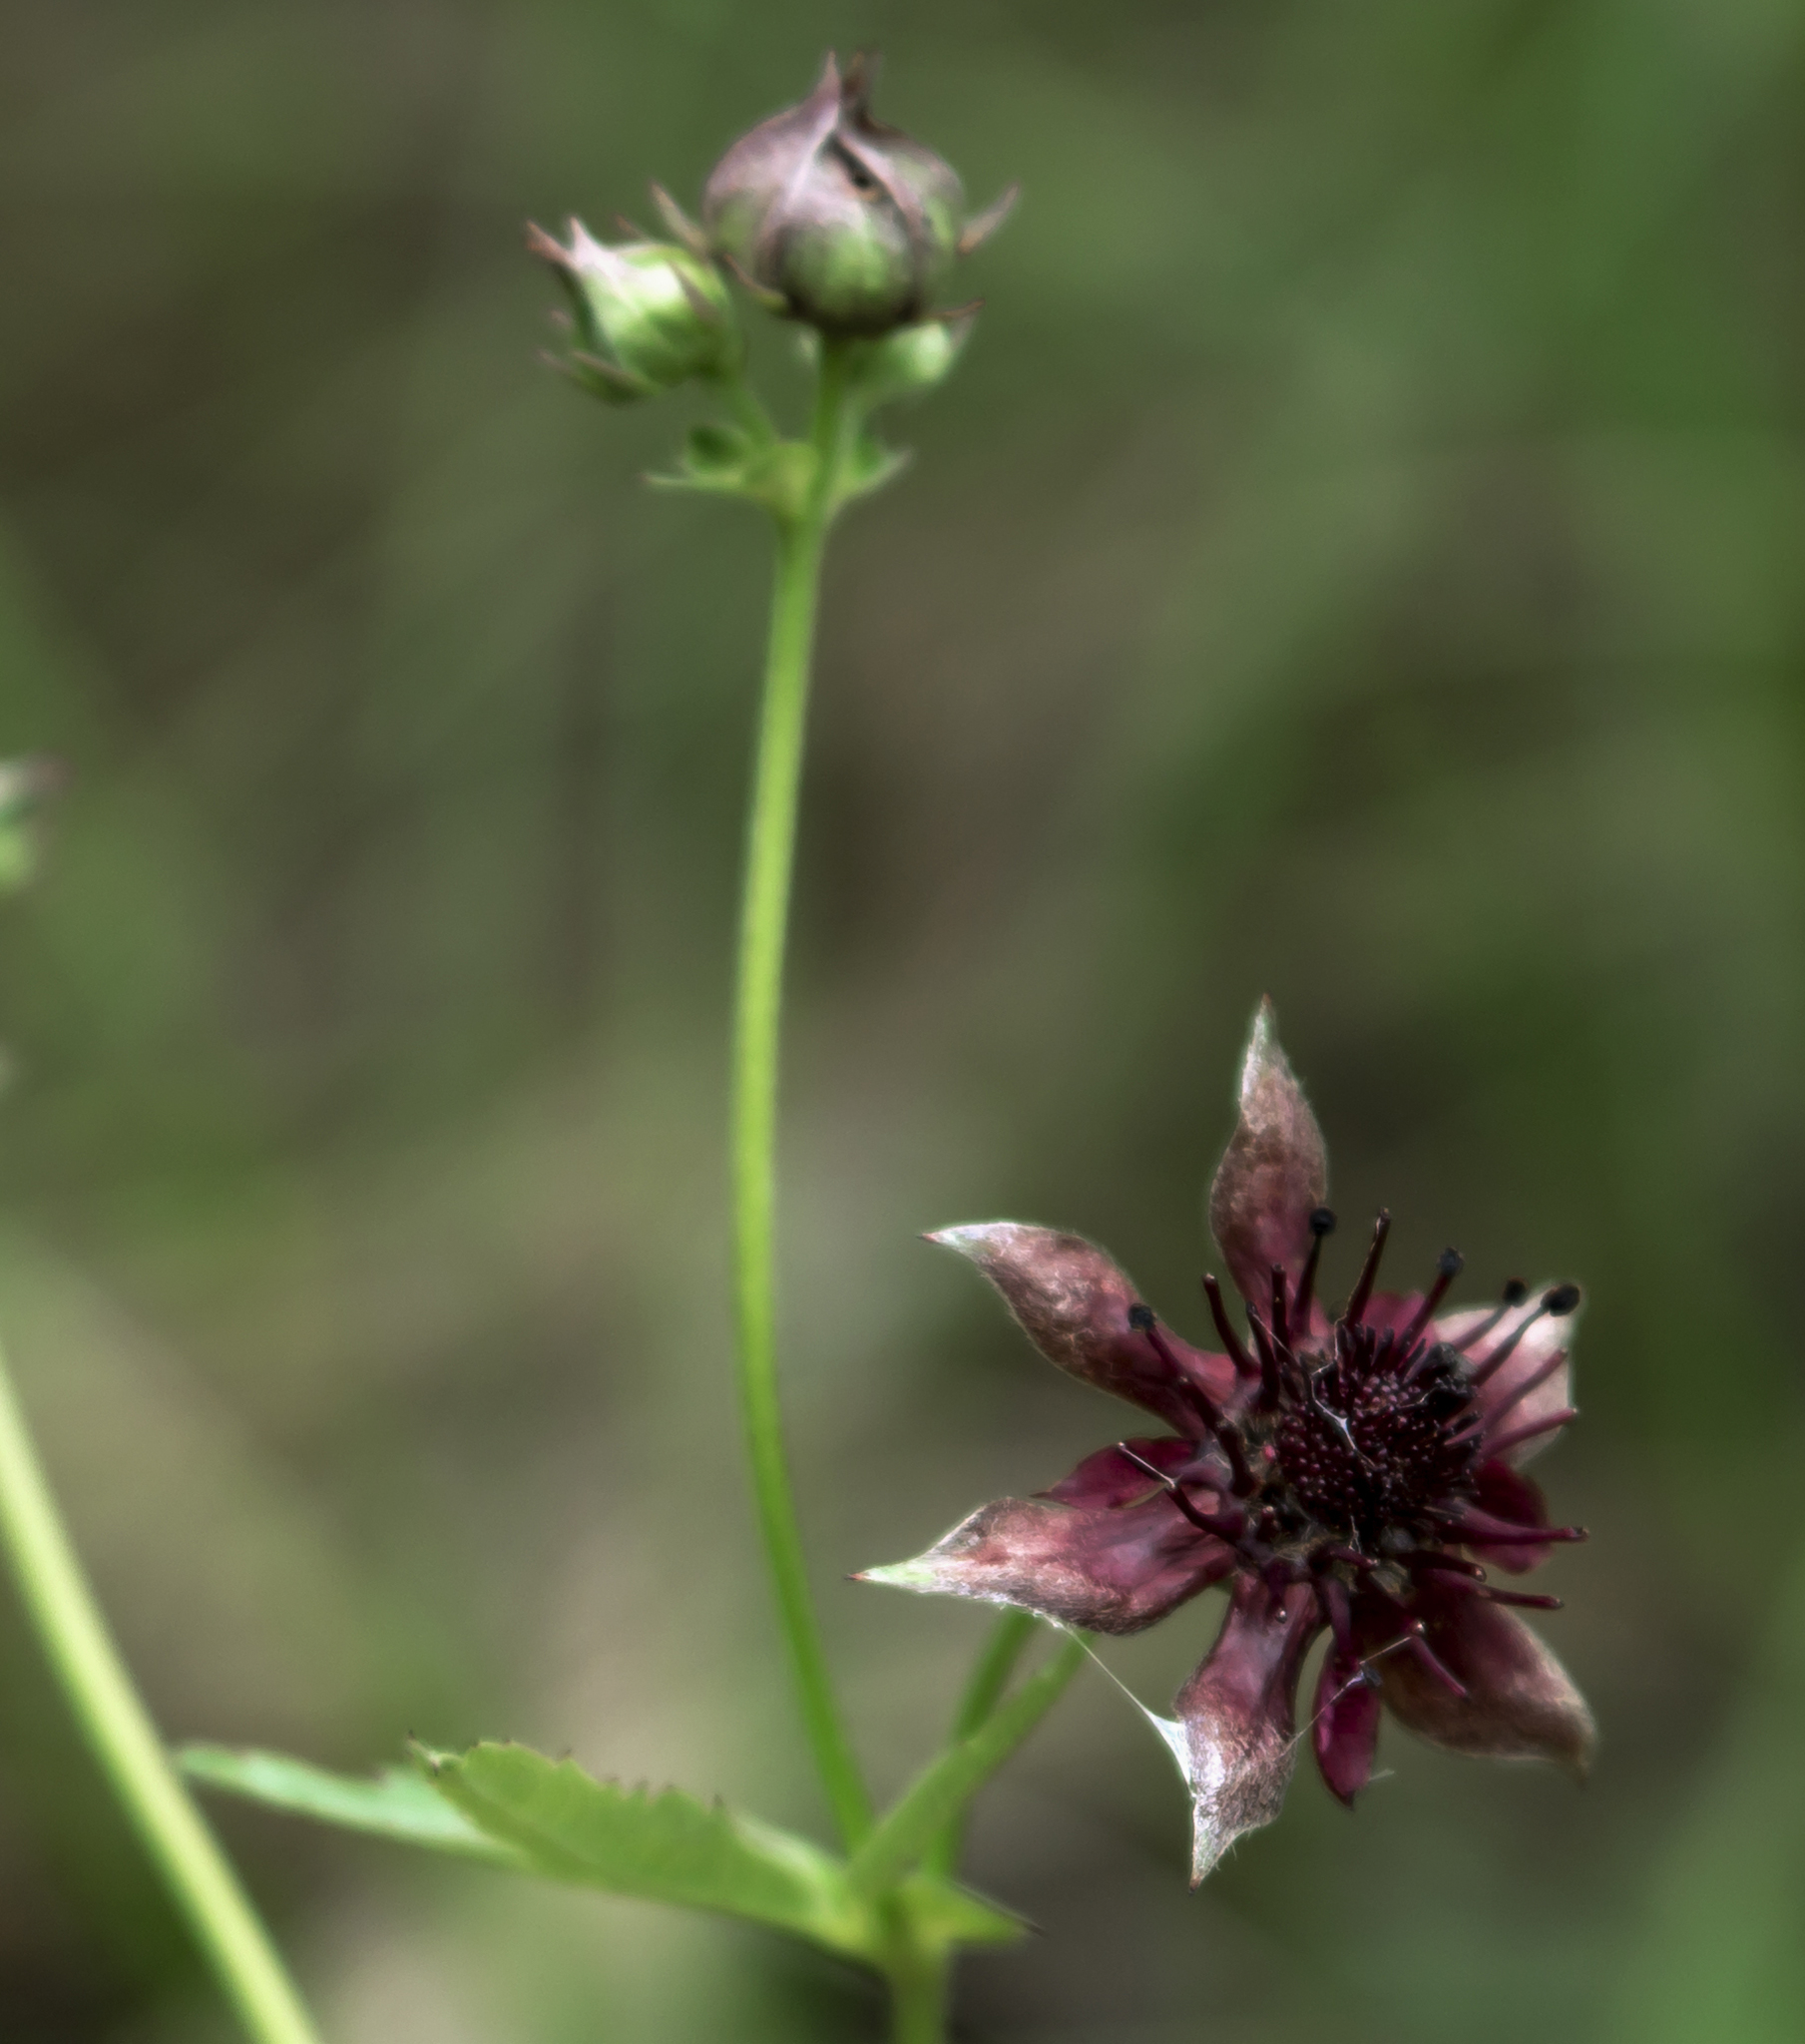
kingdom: Plantae
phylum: Tracheophyta
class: Magnoliopsida
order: Rosales
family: Rosaceae
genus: Comarum
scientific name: Comarum palustre
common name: Marsh cinquefoil
